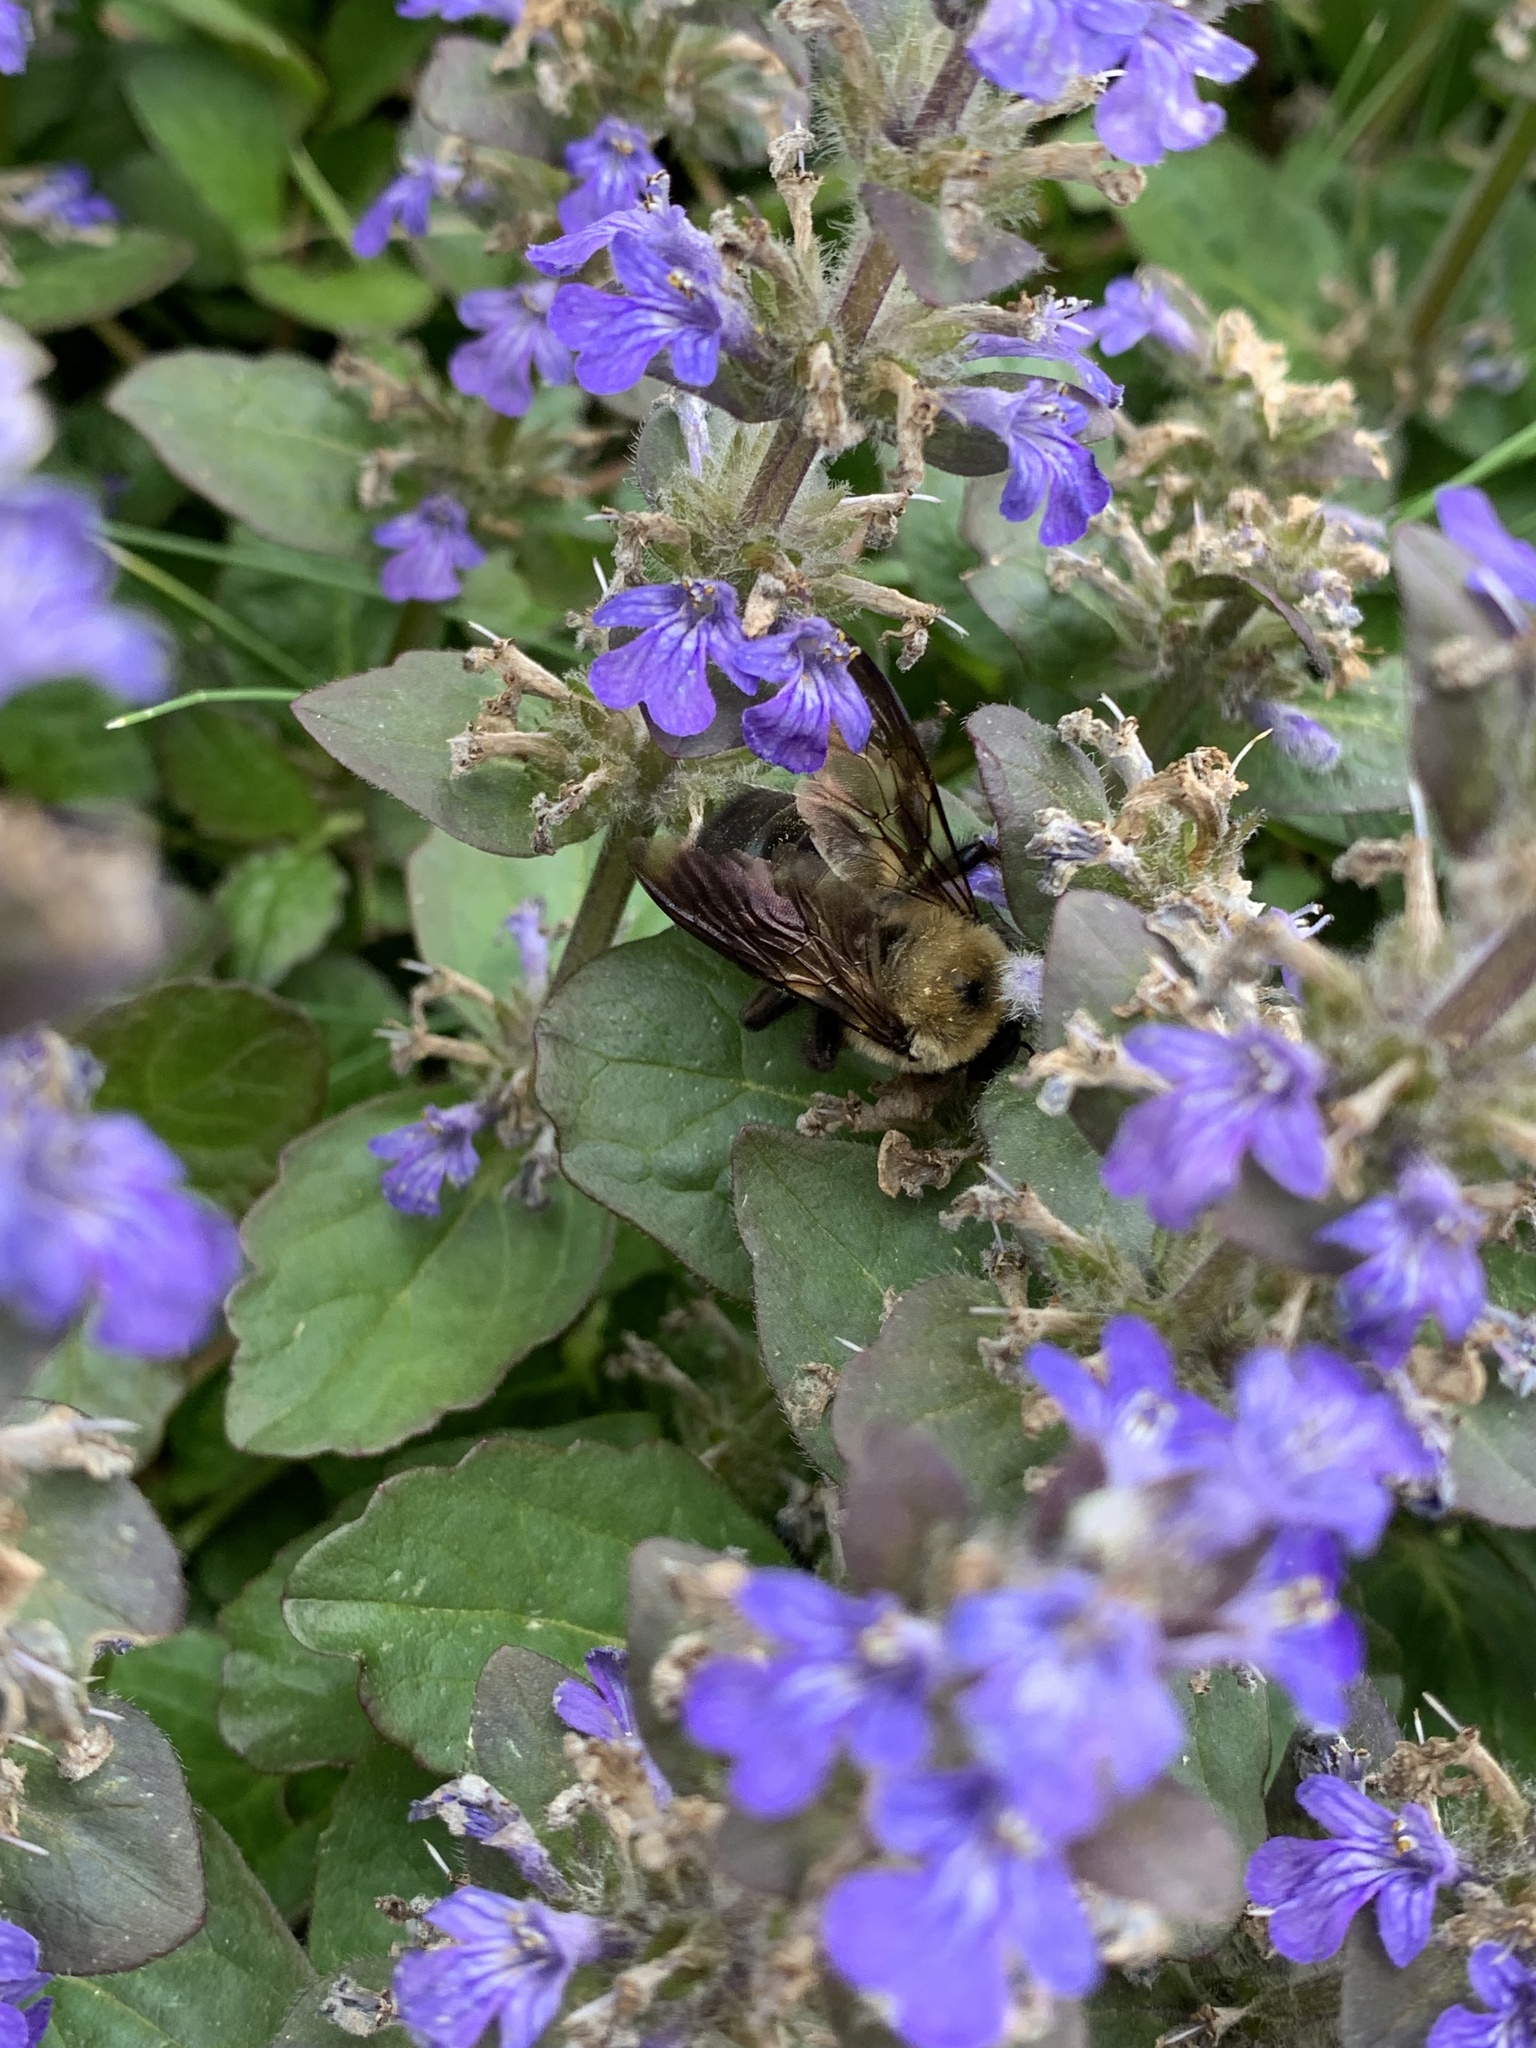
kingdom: Animalia
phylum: Arthropoda
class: Insecta
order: Hymenoptera
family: Apidae
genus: Xylocopa
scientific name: Xylocopa virginica
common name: Carpenter bee
